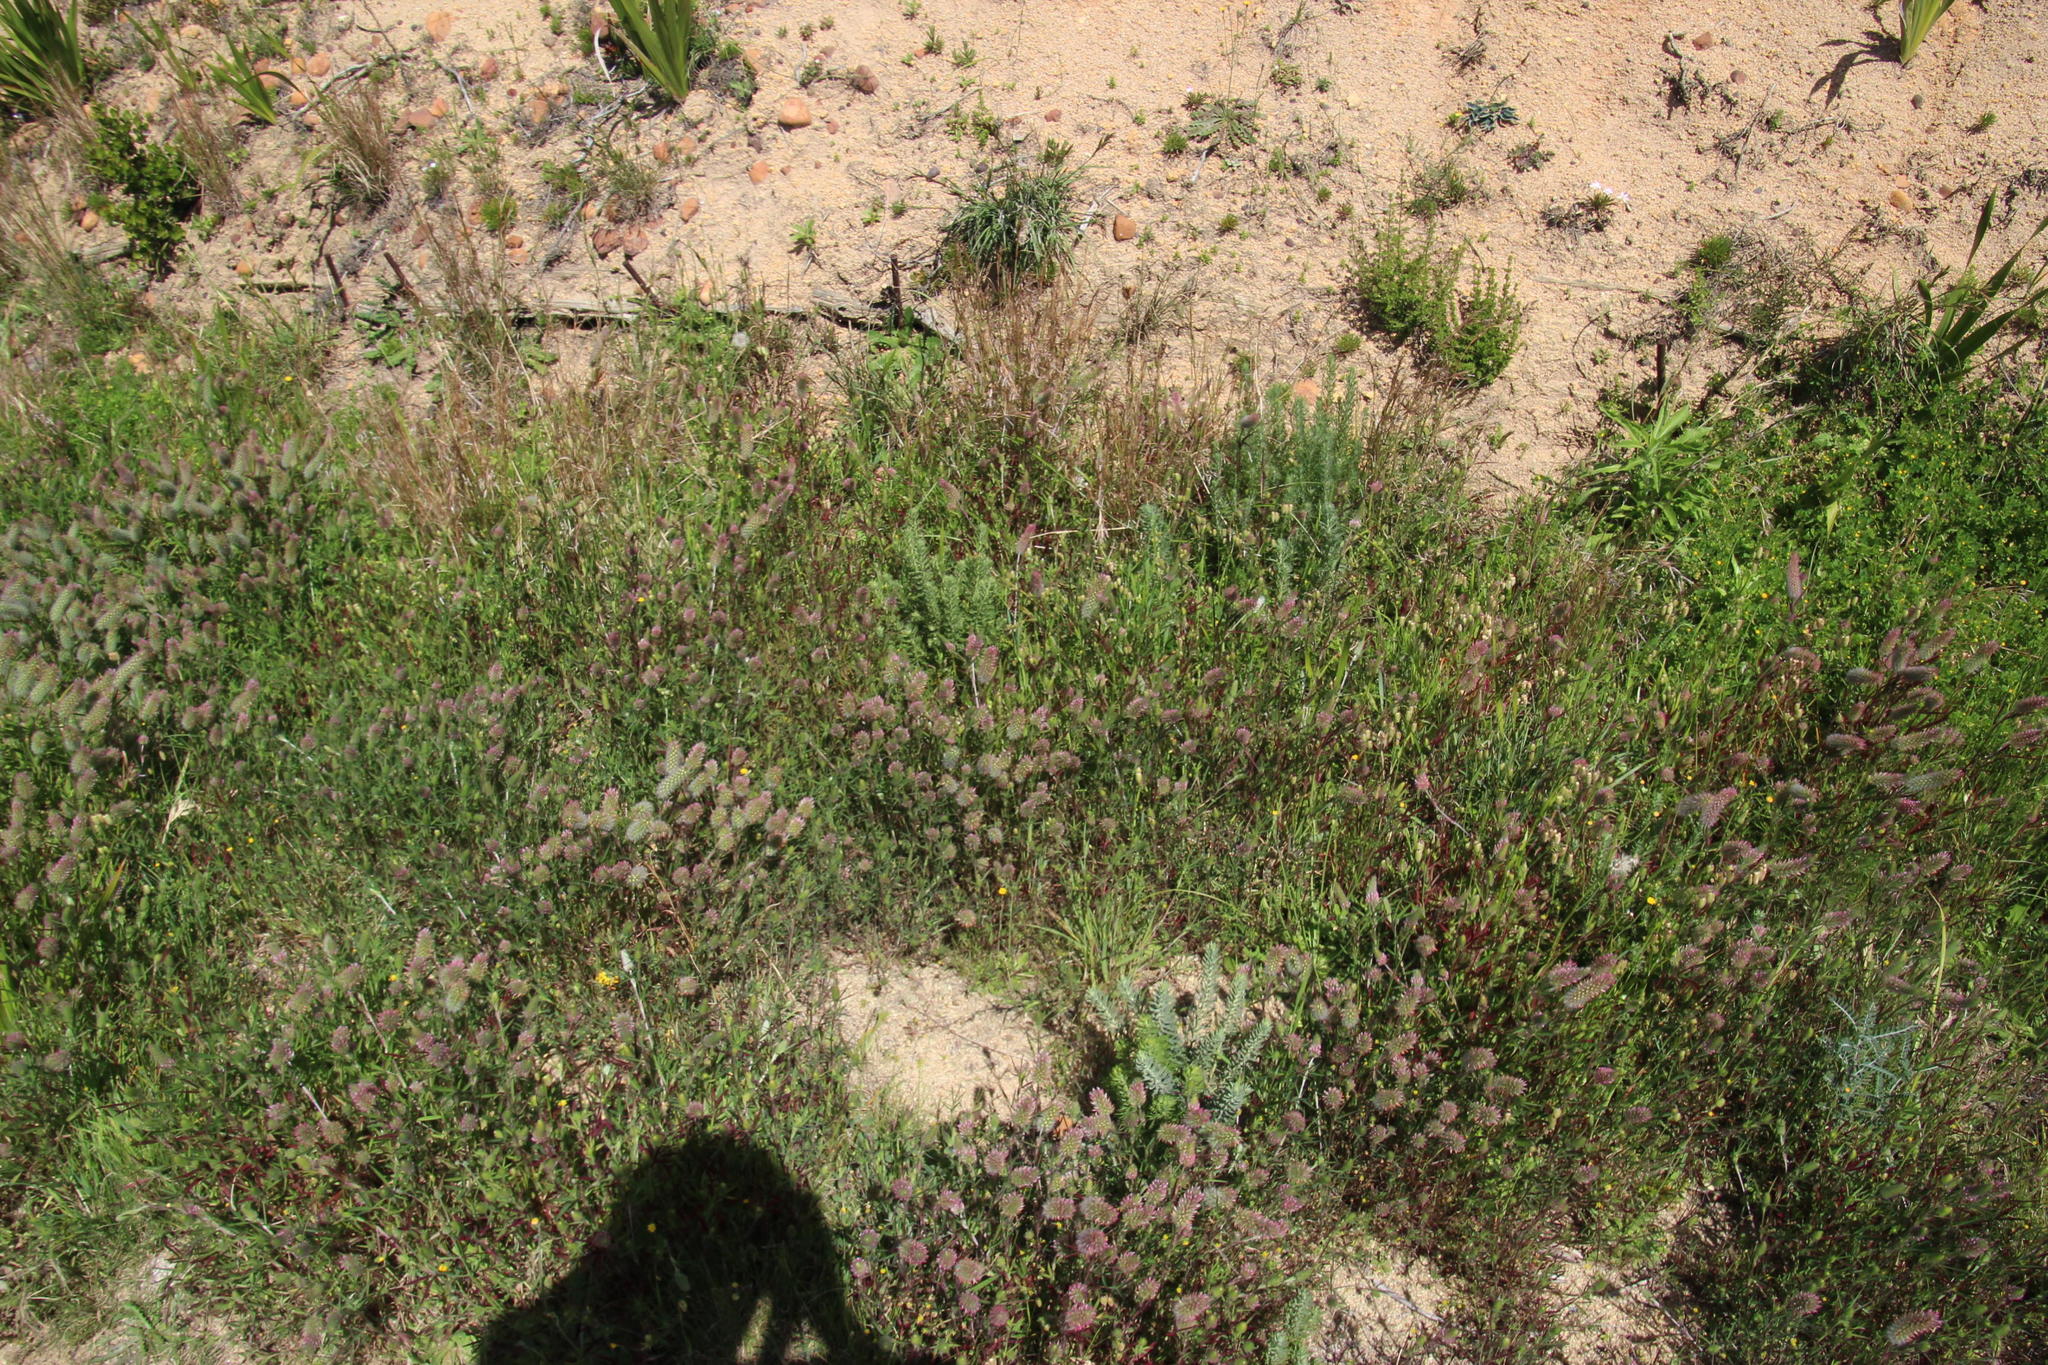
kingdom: Plantae
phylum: Tracheophyta
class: Magnoliopsida
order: Fabales
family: Fabaceae
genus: Trifolium
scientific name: Trifolium angustifolium
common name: Narrow clover
